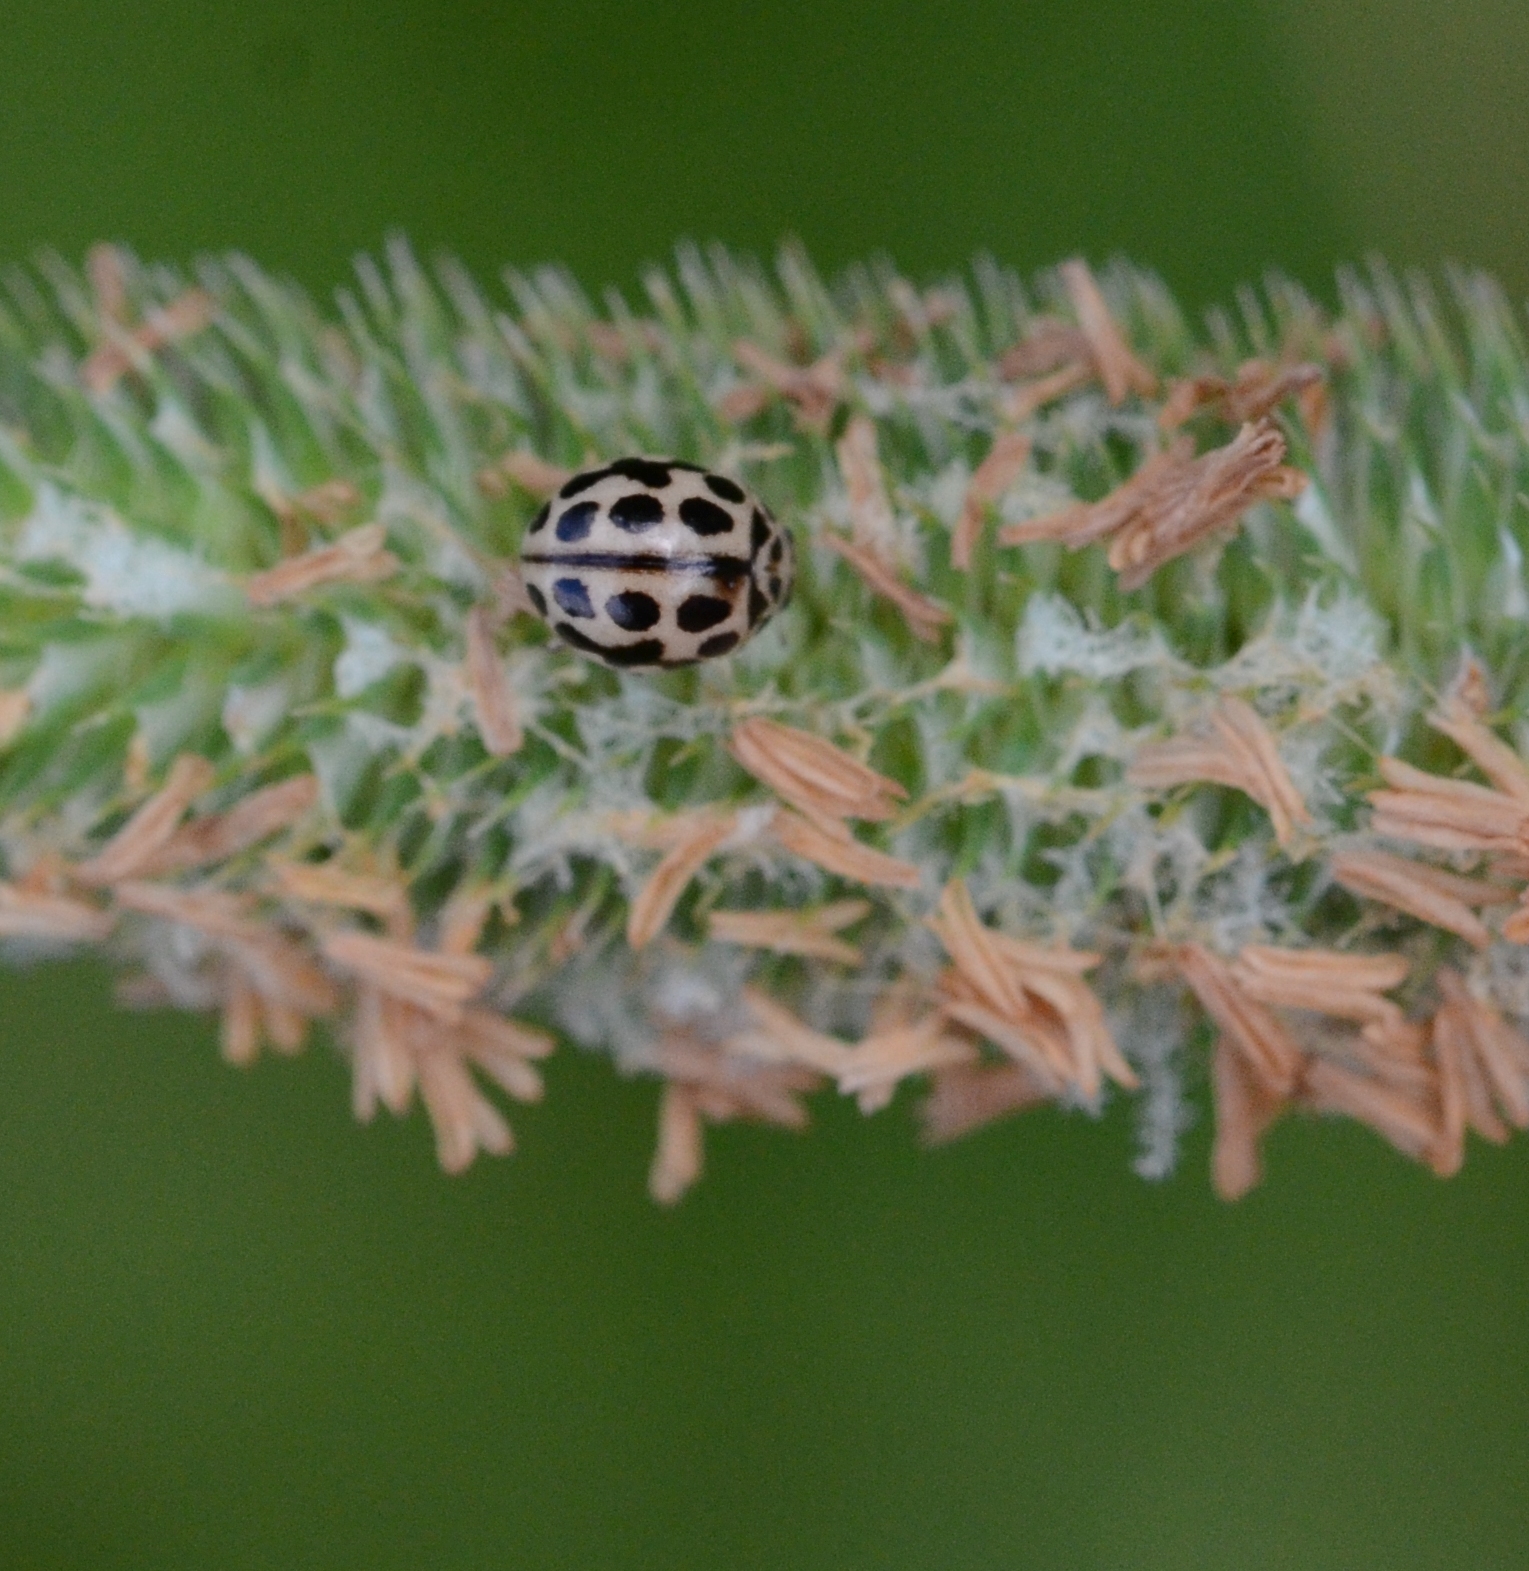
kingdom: Animalia
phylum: Arthropoda
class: Insecta
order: Coleoptera
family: Coccinellidae
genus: Tytthaspis
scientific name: Tytthaspis sedecimpunctata
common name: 16-spot ladybird
